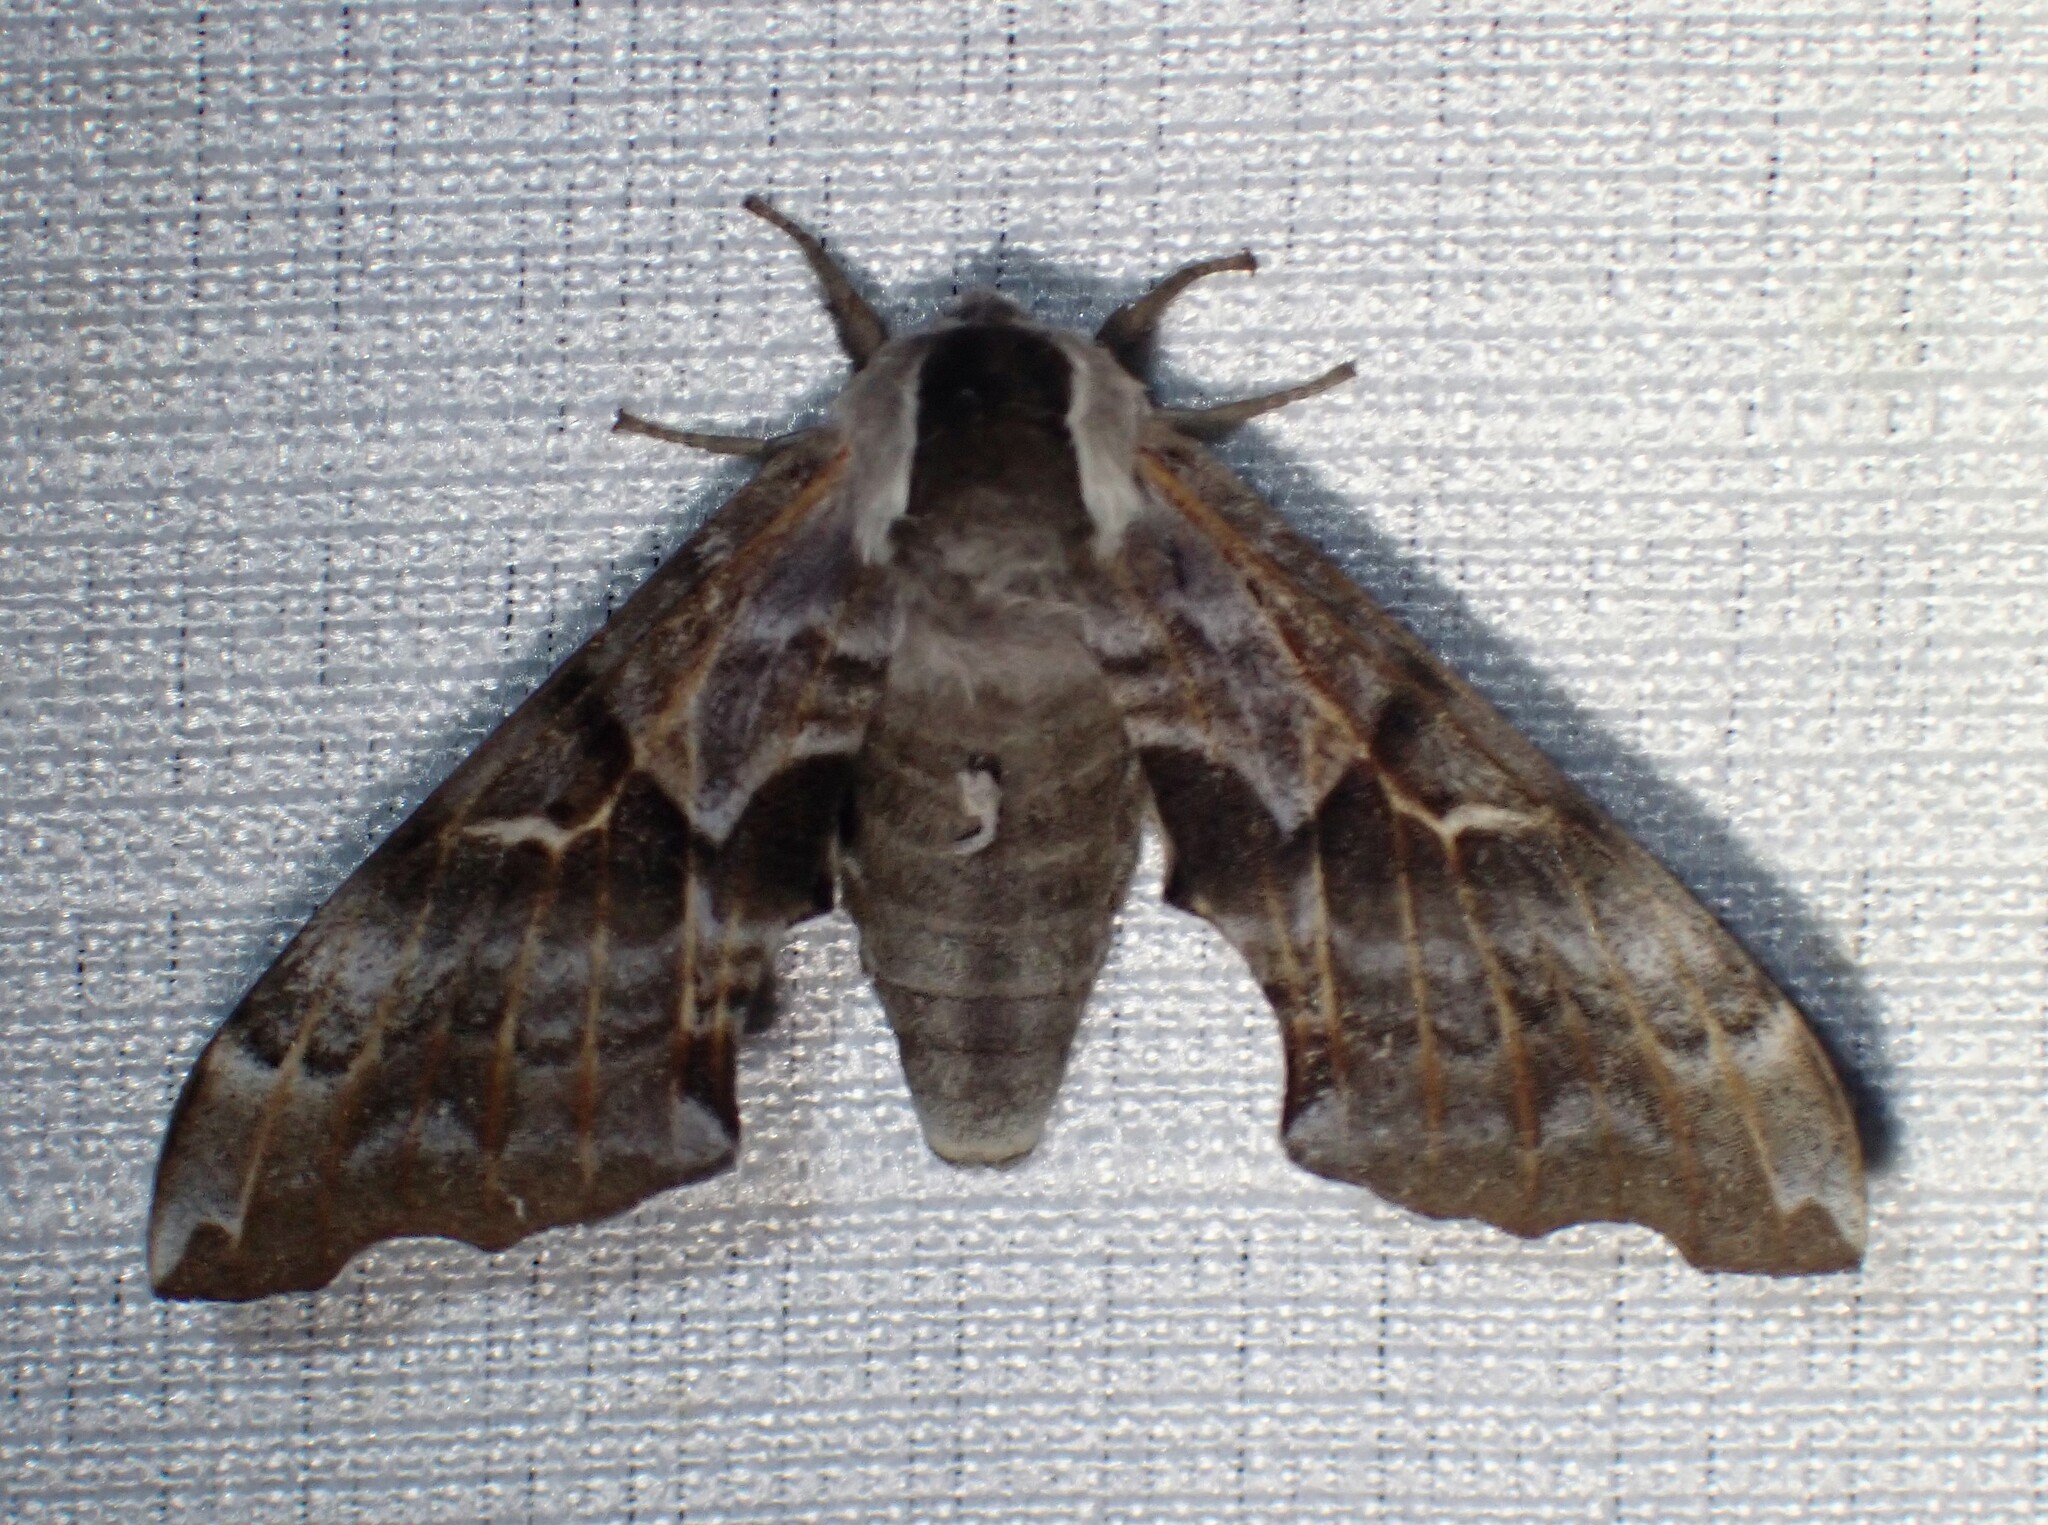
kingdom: Animalia
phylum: Arthropoda
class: Insecta
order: Lepidoptera
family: Sphingidae
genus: Smerinthus
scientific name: Smerinthus cerisyi
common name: Cerisy's sphinx moth
